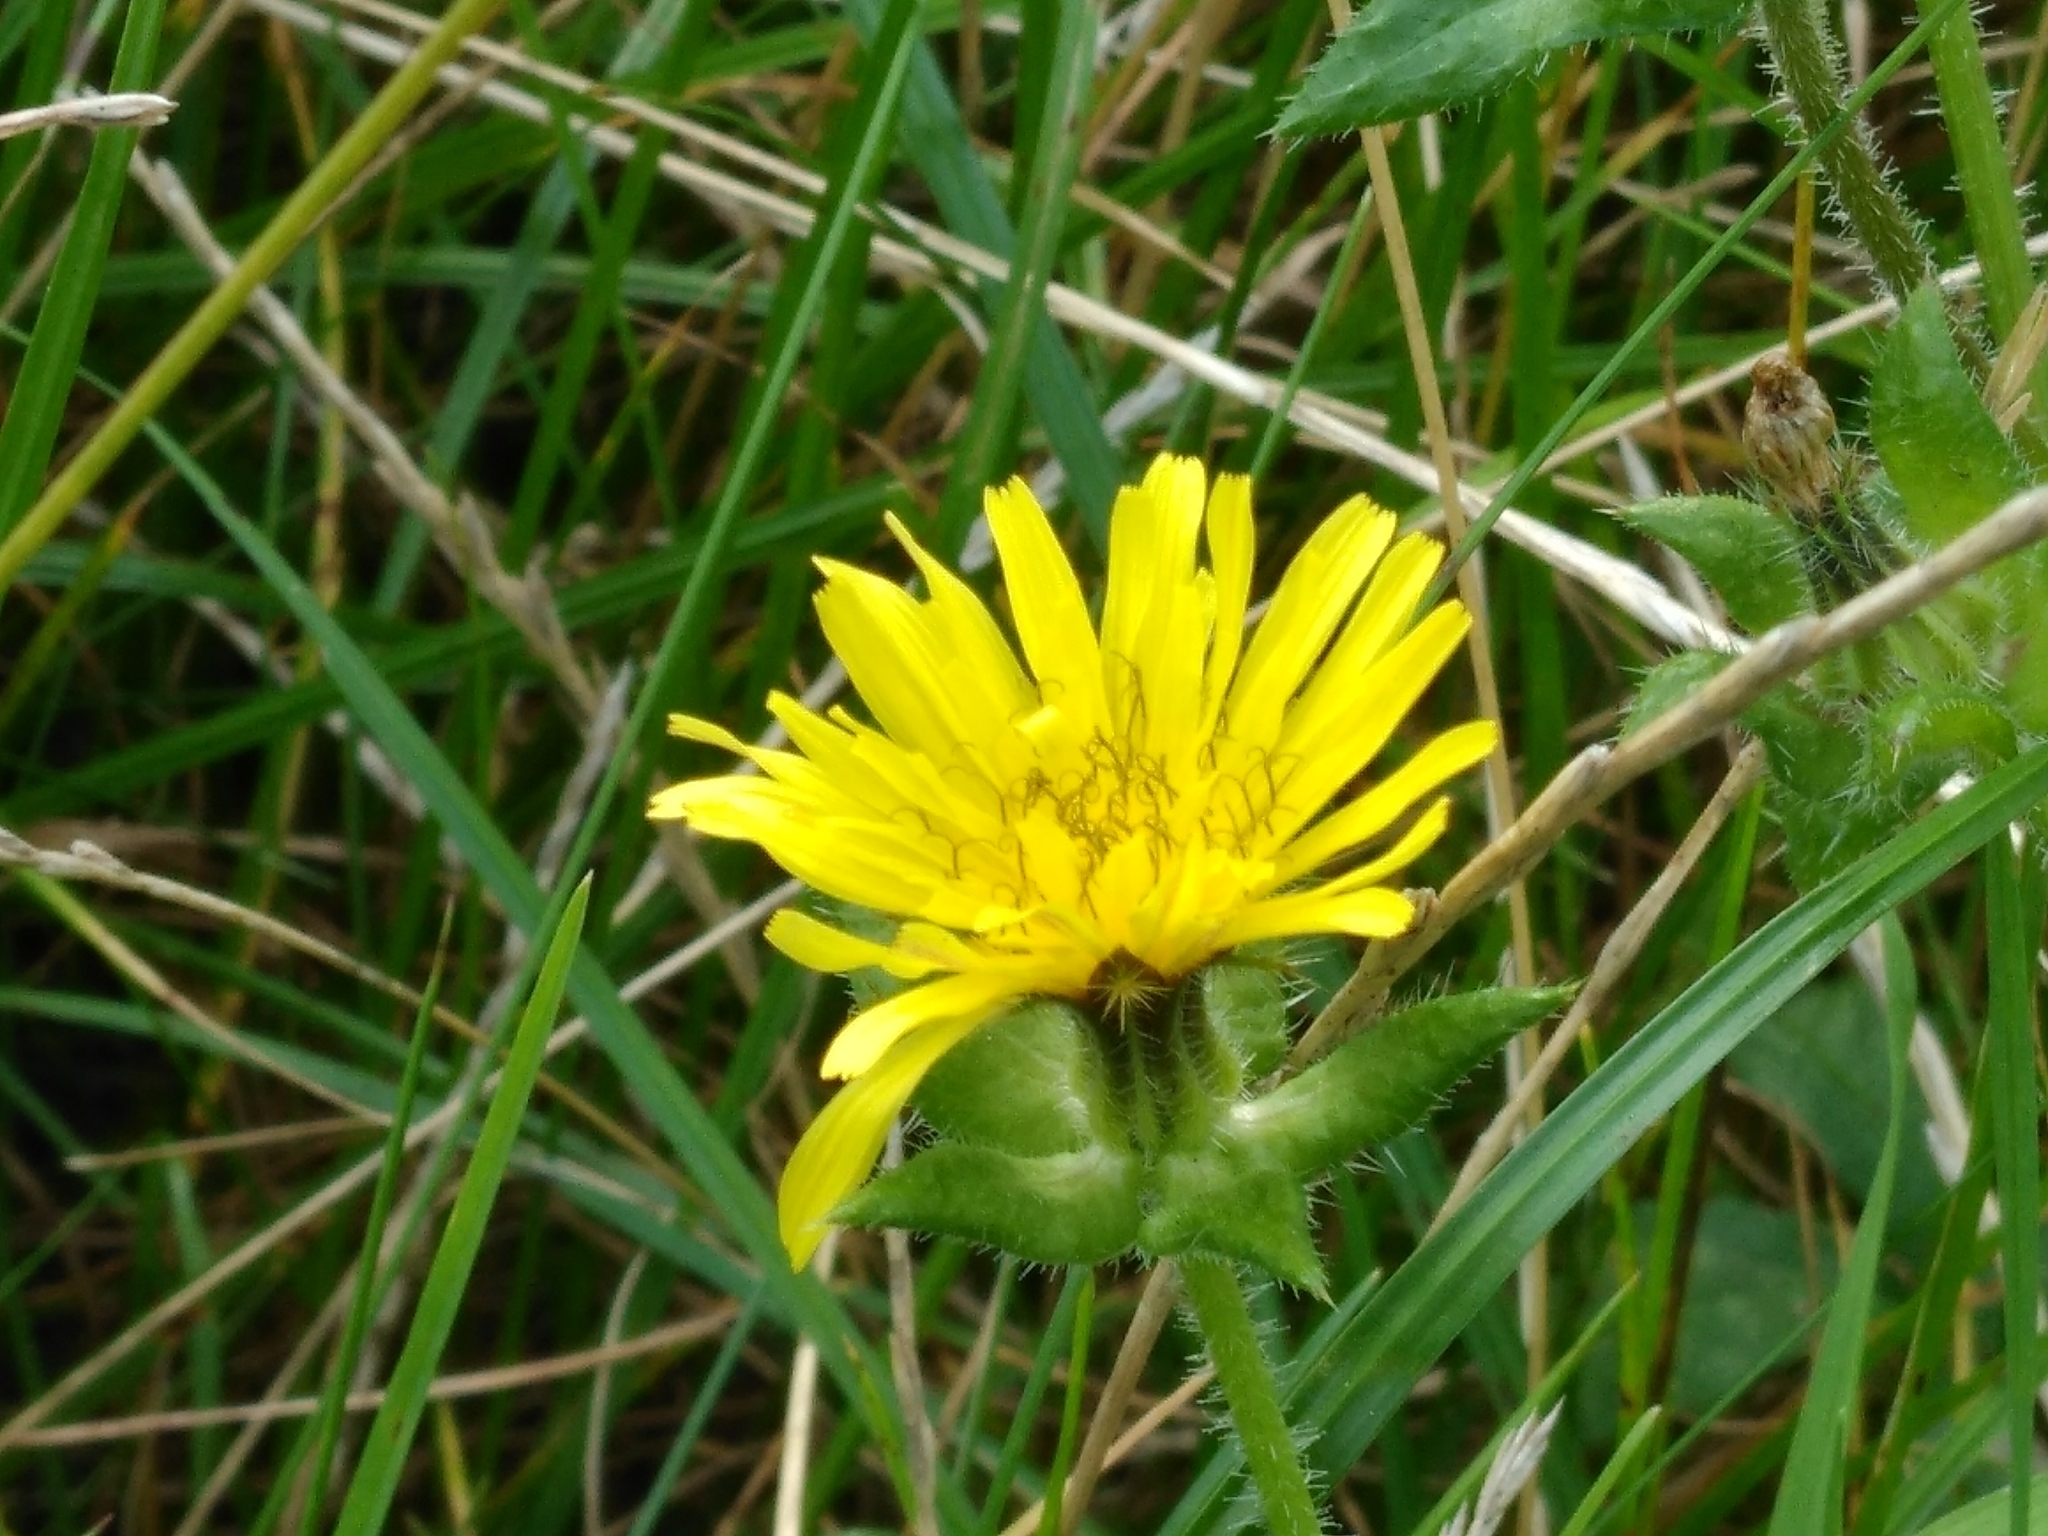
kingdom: Plantae
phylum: Tracheophyta
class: Magnoliopsida
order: Asterales
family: Asteraceae
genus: Helminthotheca
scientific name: Helminthotheca echioides
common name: Ox-tongue
